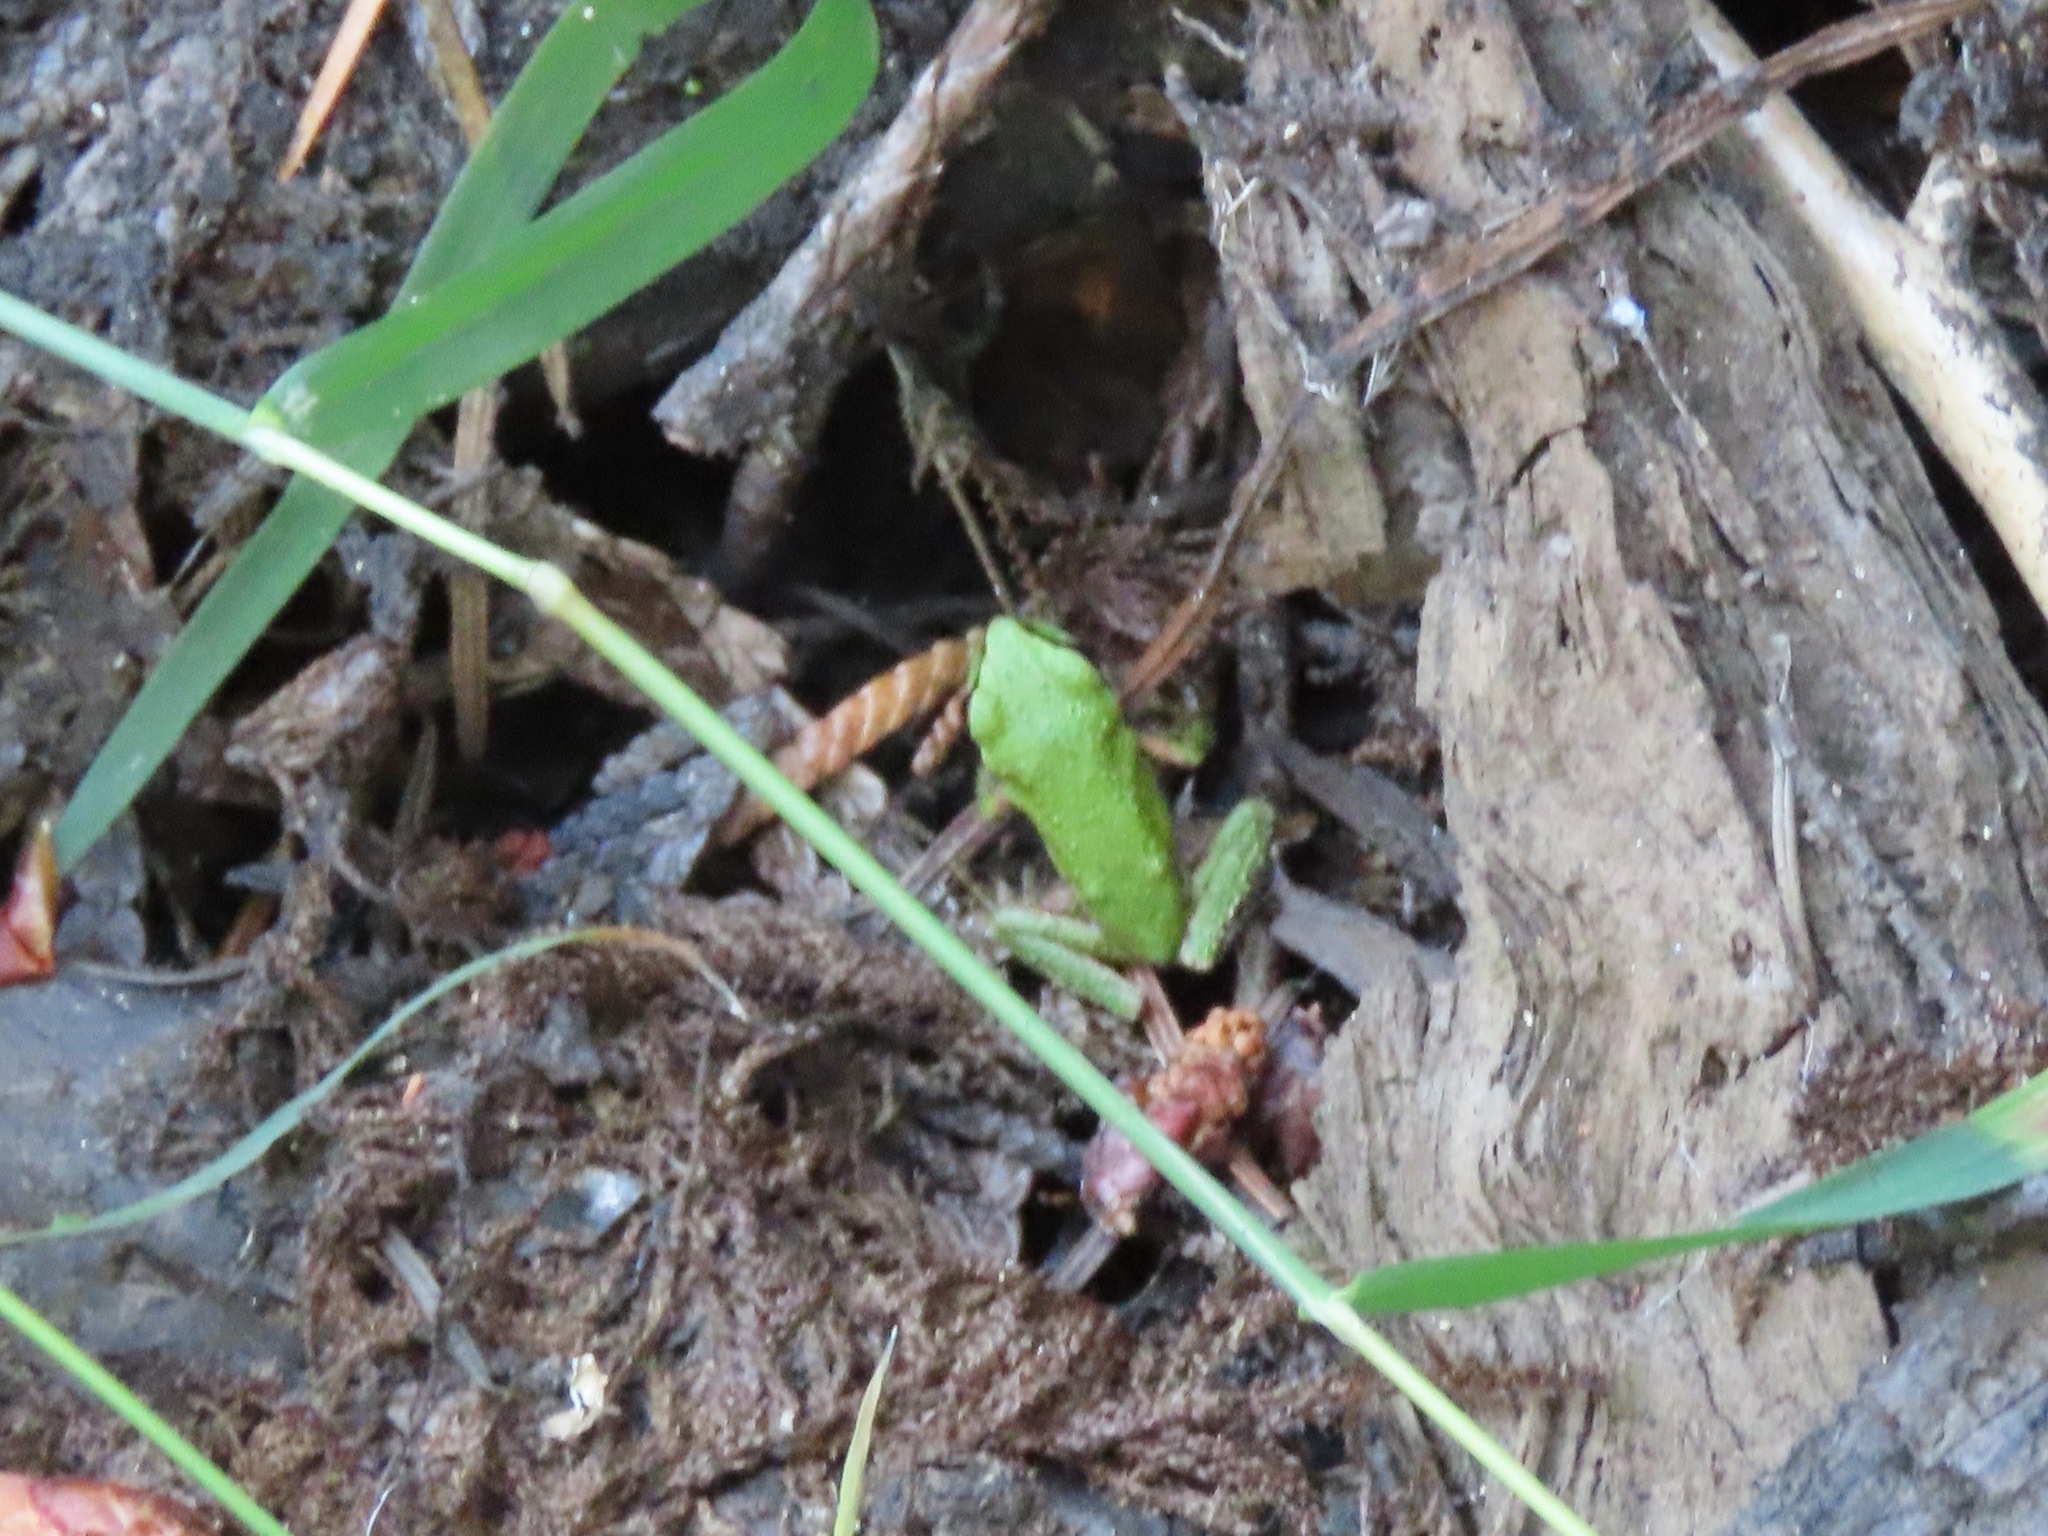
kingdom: Animalia
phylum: Chordata
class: Amphibia
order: Anura
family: Hylidae
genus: Pseudacris
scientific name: Pseudacris regilla
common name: Pacific chorus frog
